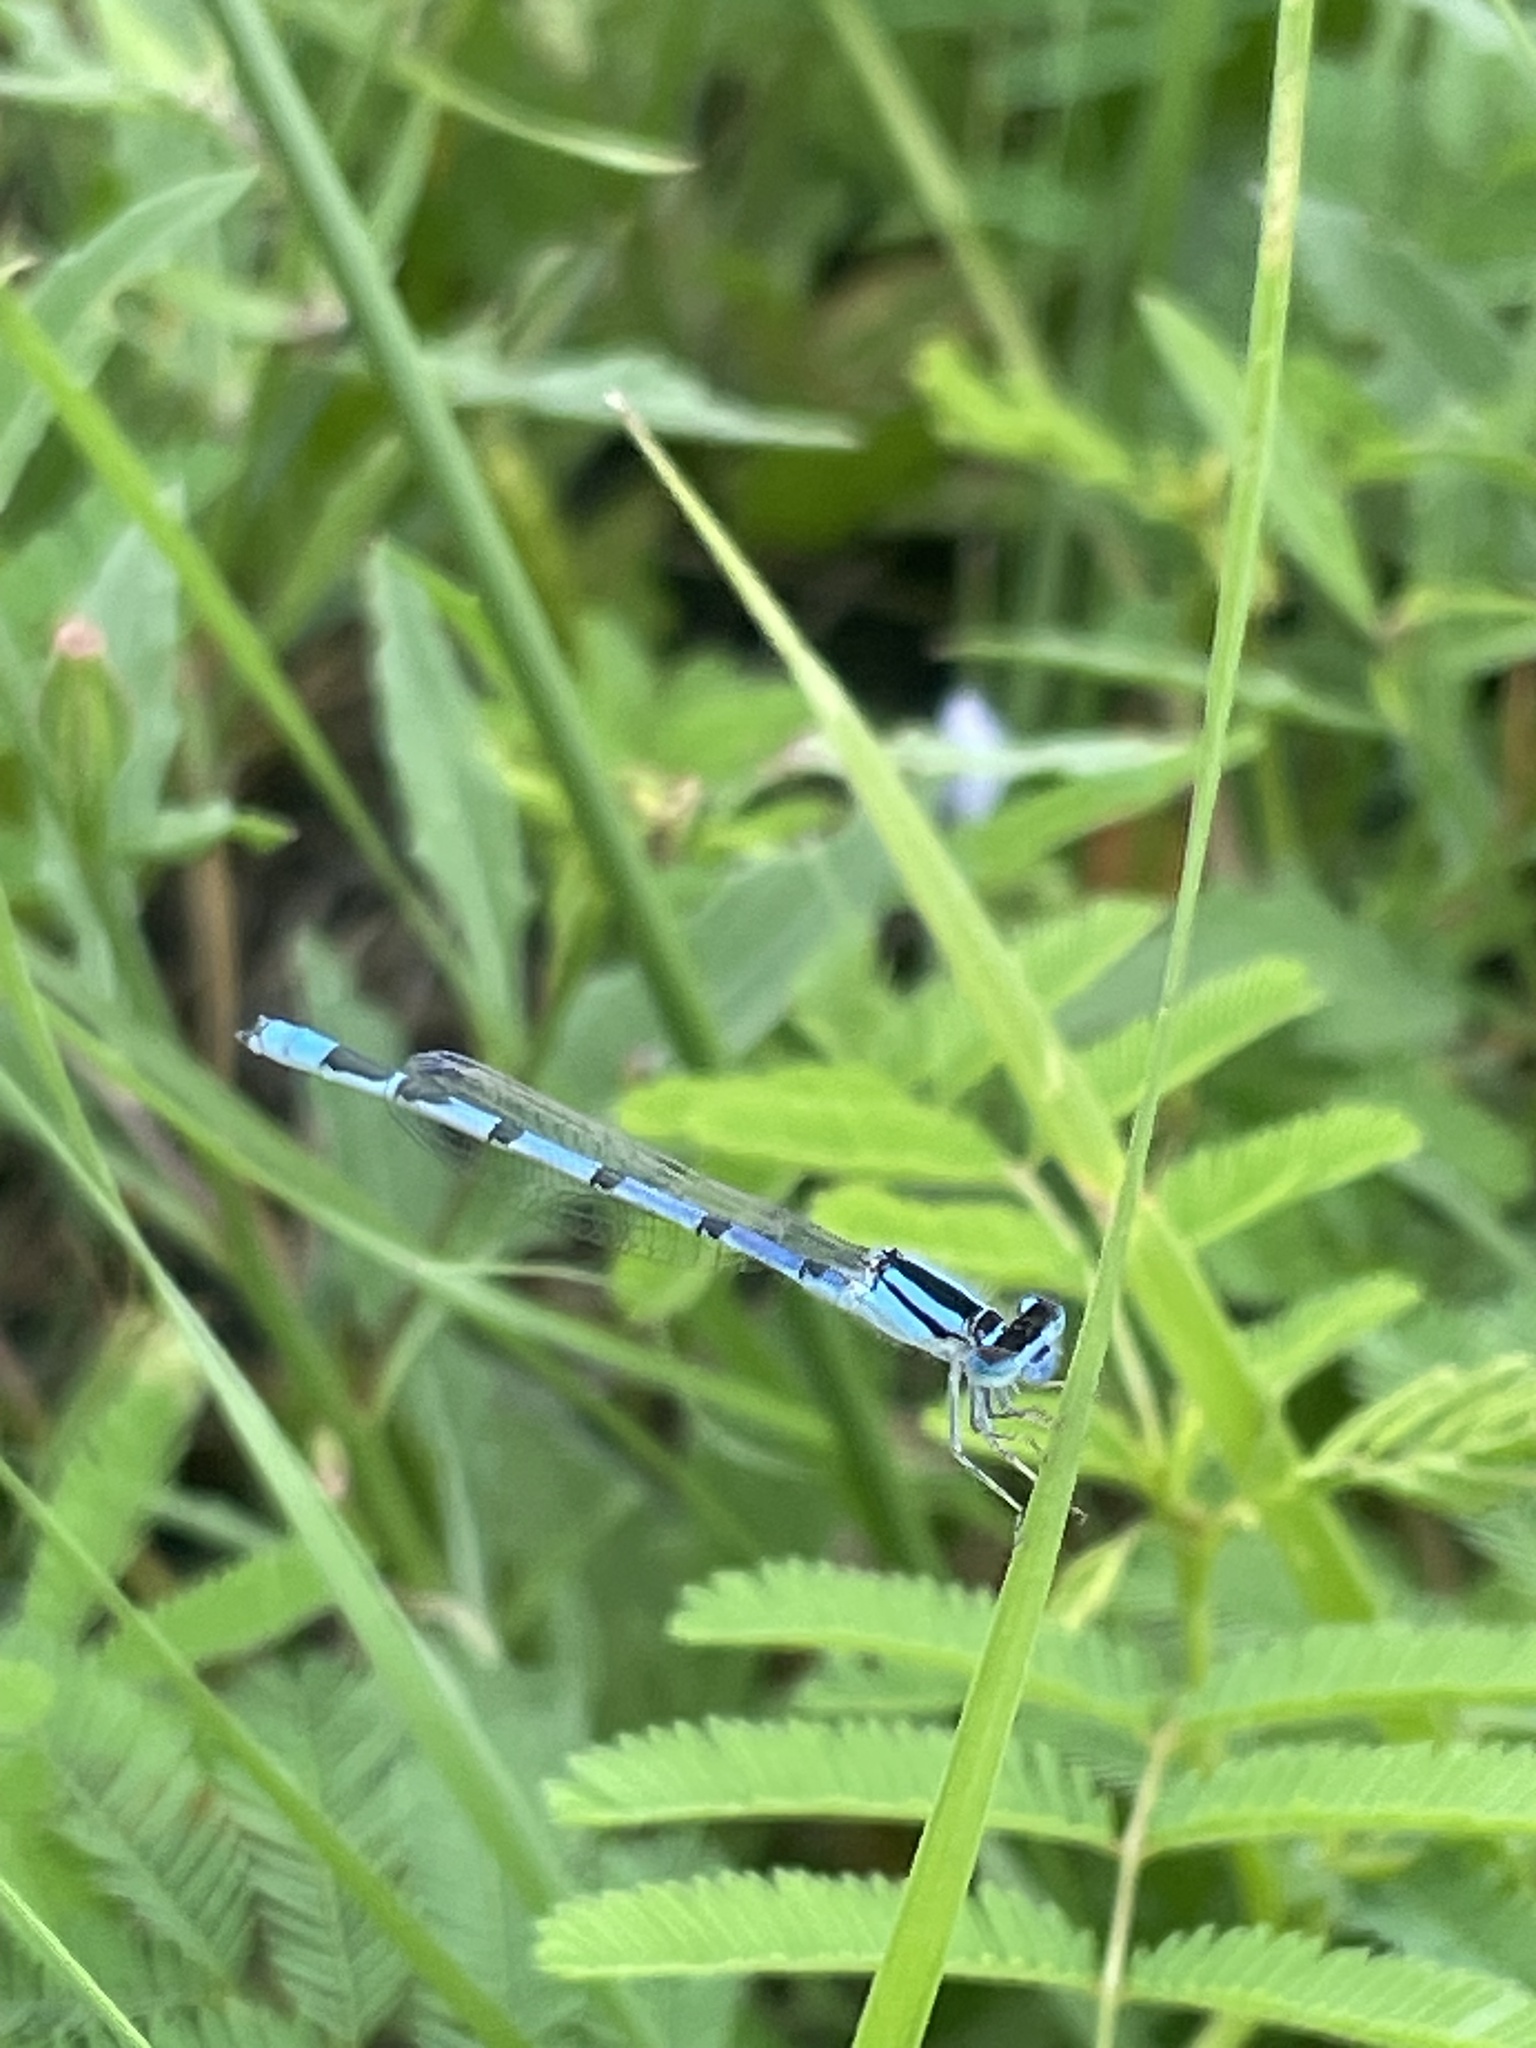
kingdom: Animalia
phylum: Arthropoda
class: Insecta
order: Odonata
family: Coenagrionidae
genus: Enallagma
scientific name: Enallagma civile
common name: Damselfly
